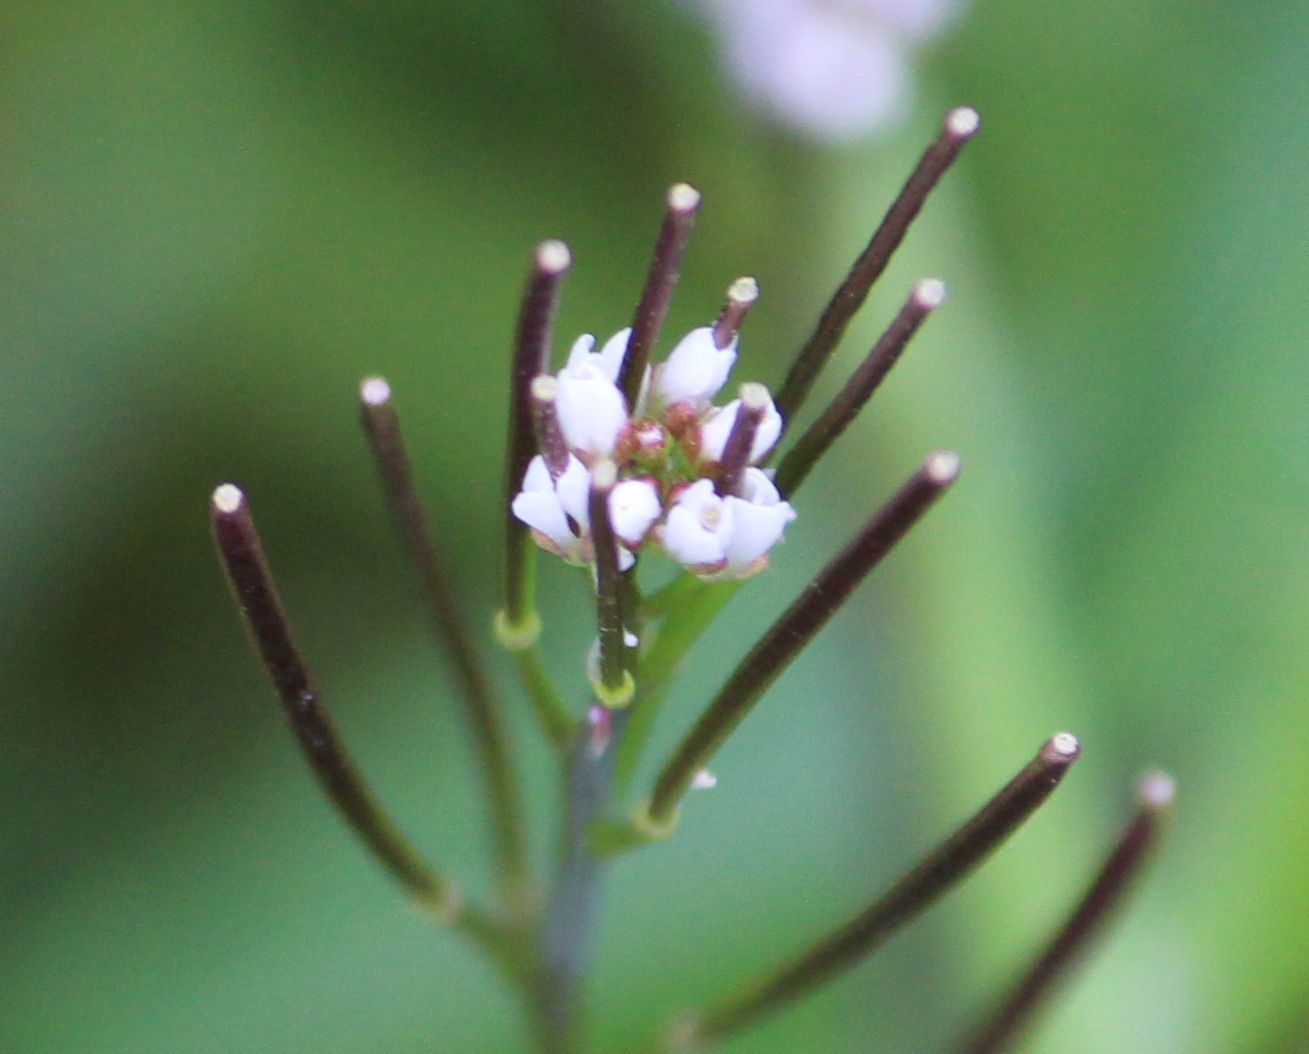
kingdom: Plantae
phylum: Tracheophyta
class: Magnoliopsida
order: Brassicales
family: Brassicaceae
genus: Cardamine
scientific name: Cardamine hirsuta
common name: Hairy bittercress
